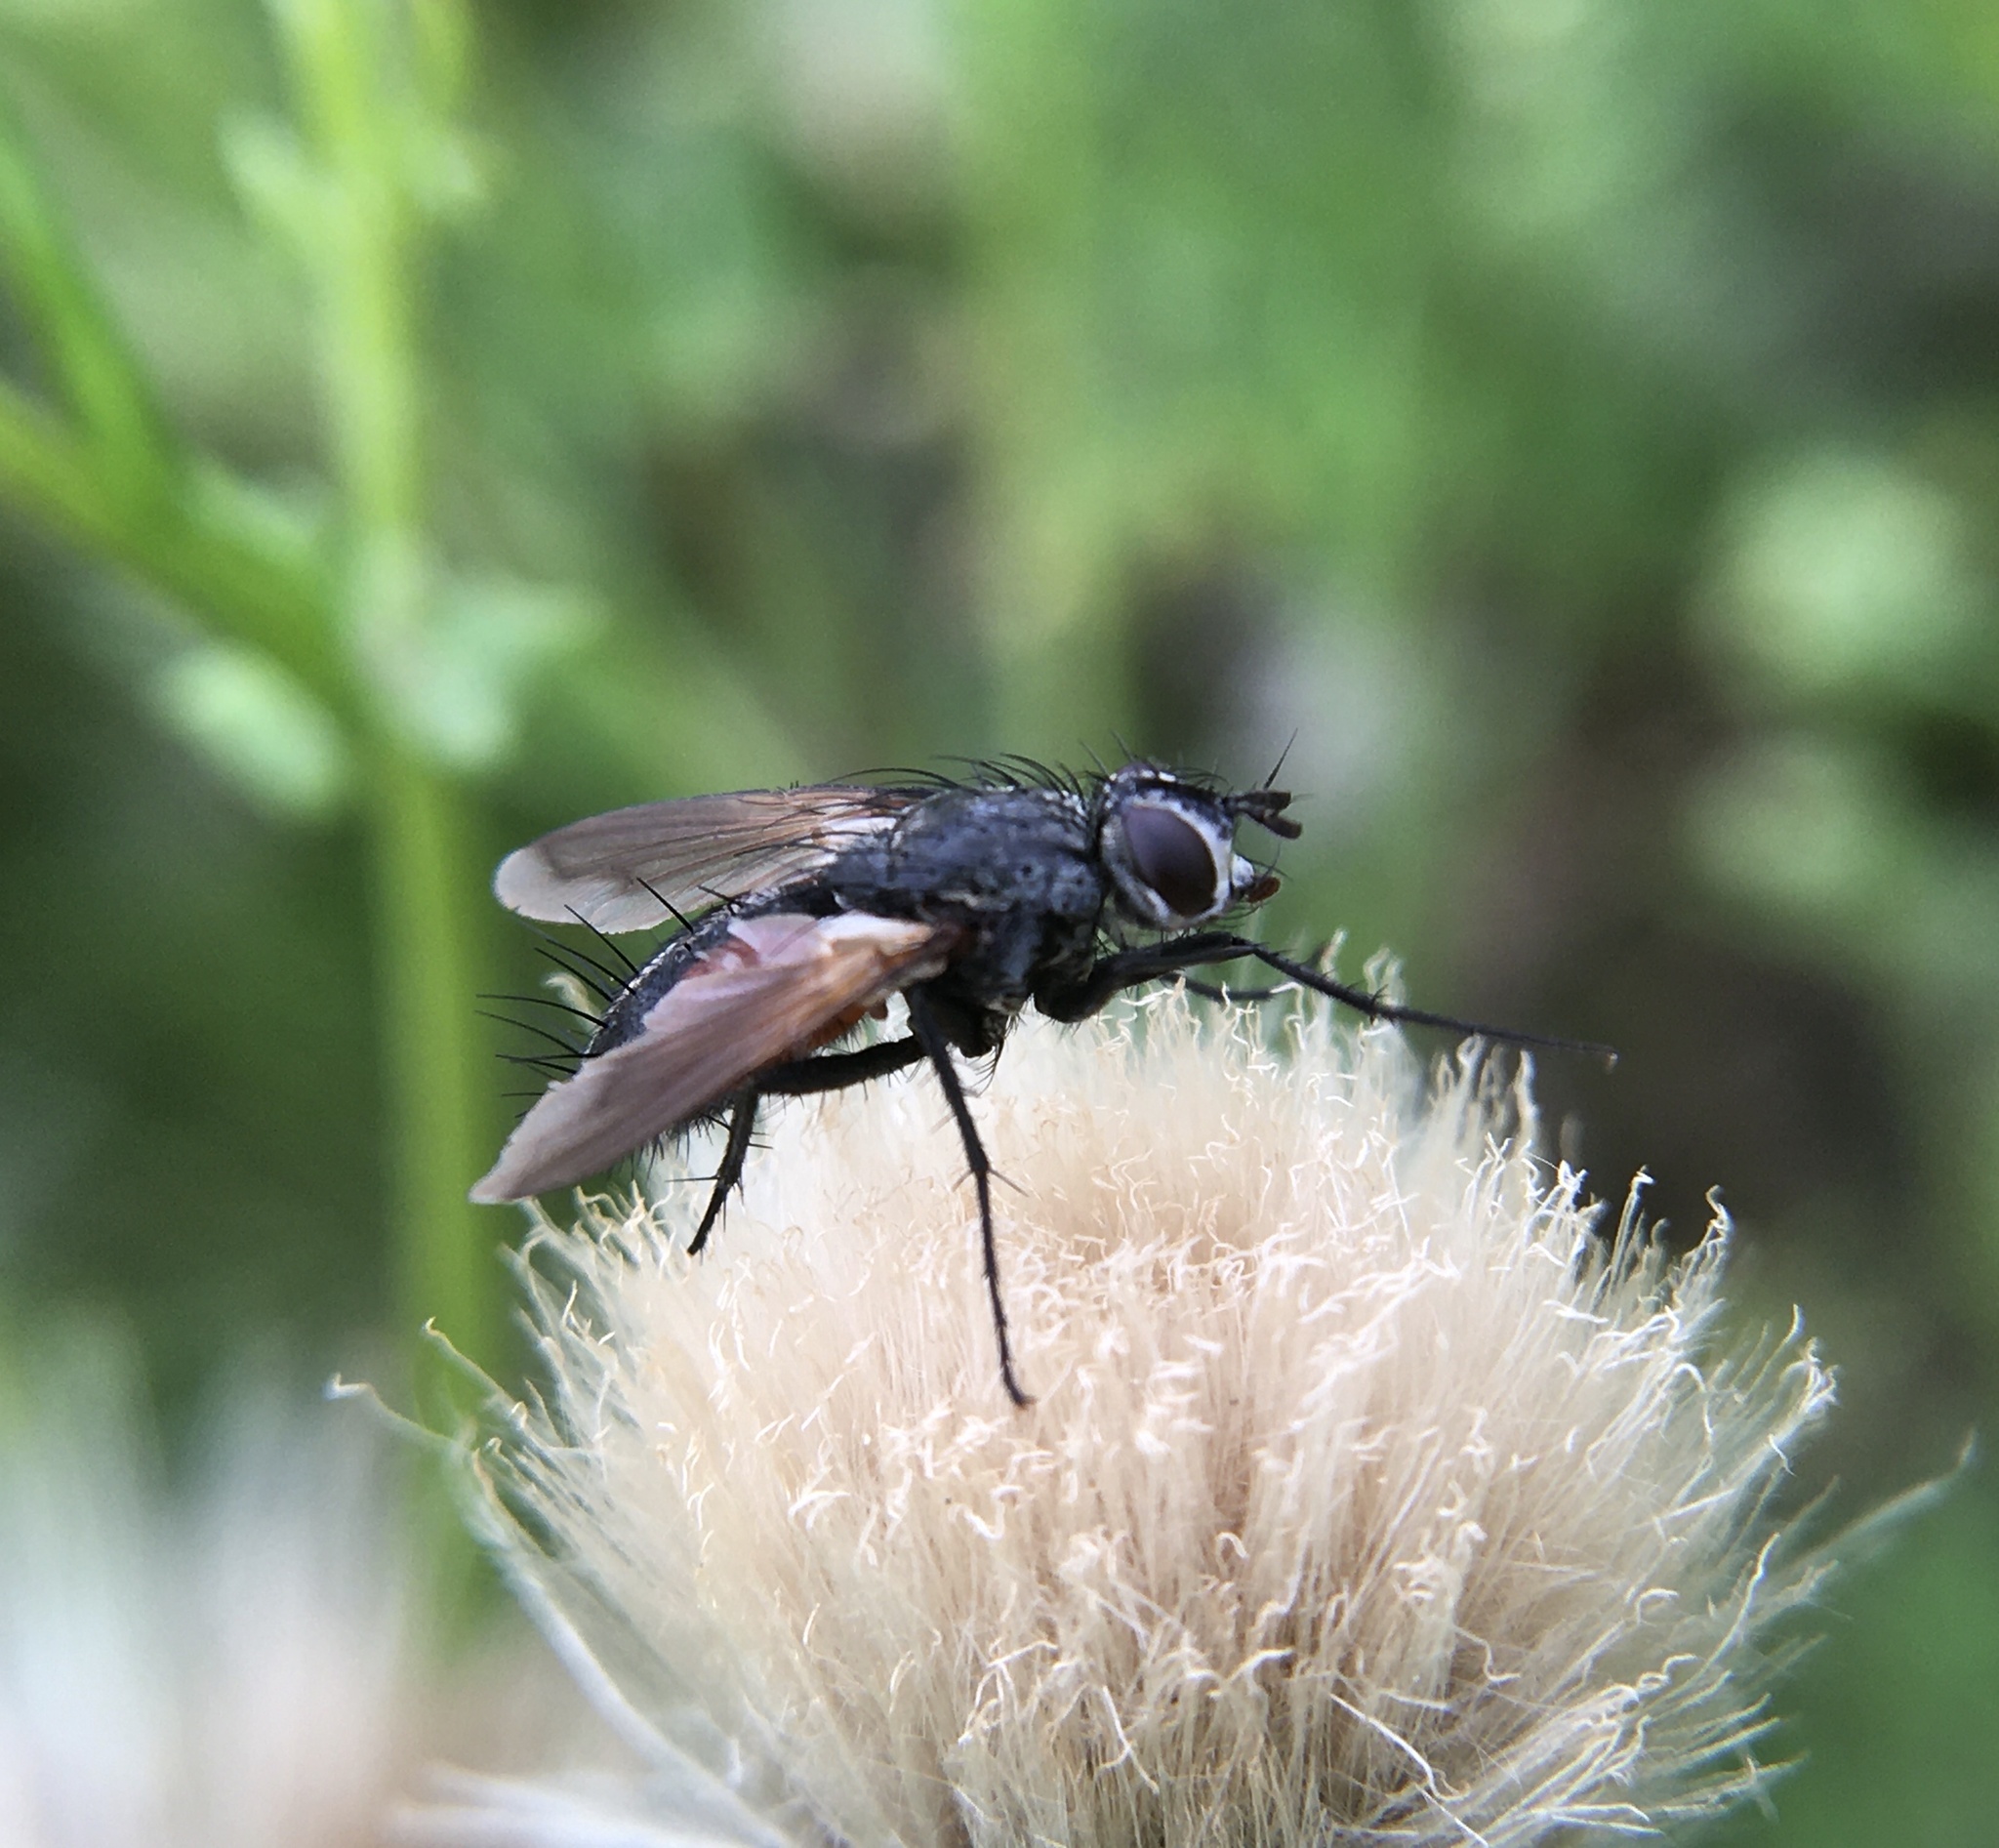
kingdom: Animalia
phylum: Arthropoda
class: Insecta
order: Diptera
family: Tachinidae
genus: Eriothrix
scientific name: Eriothrix rufomaculatus
